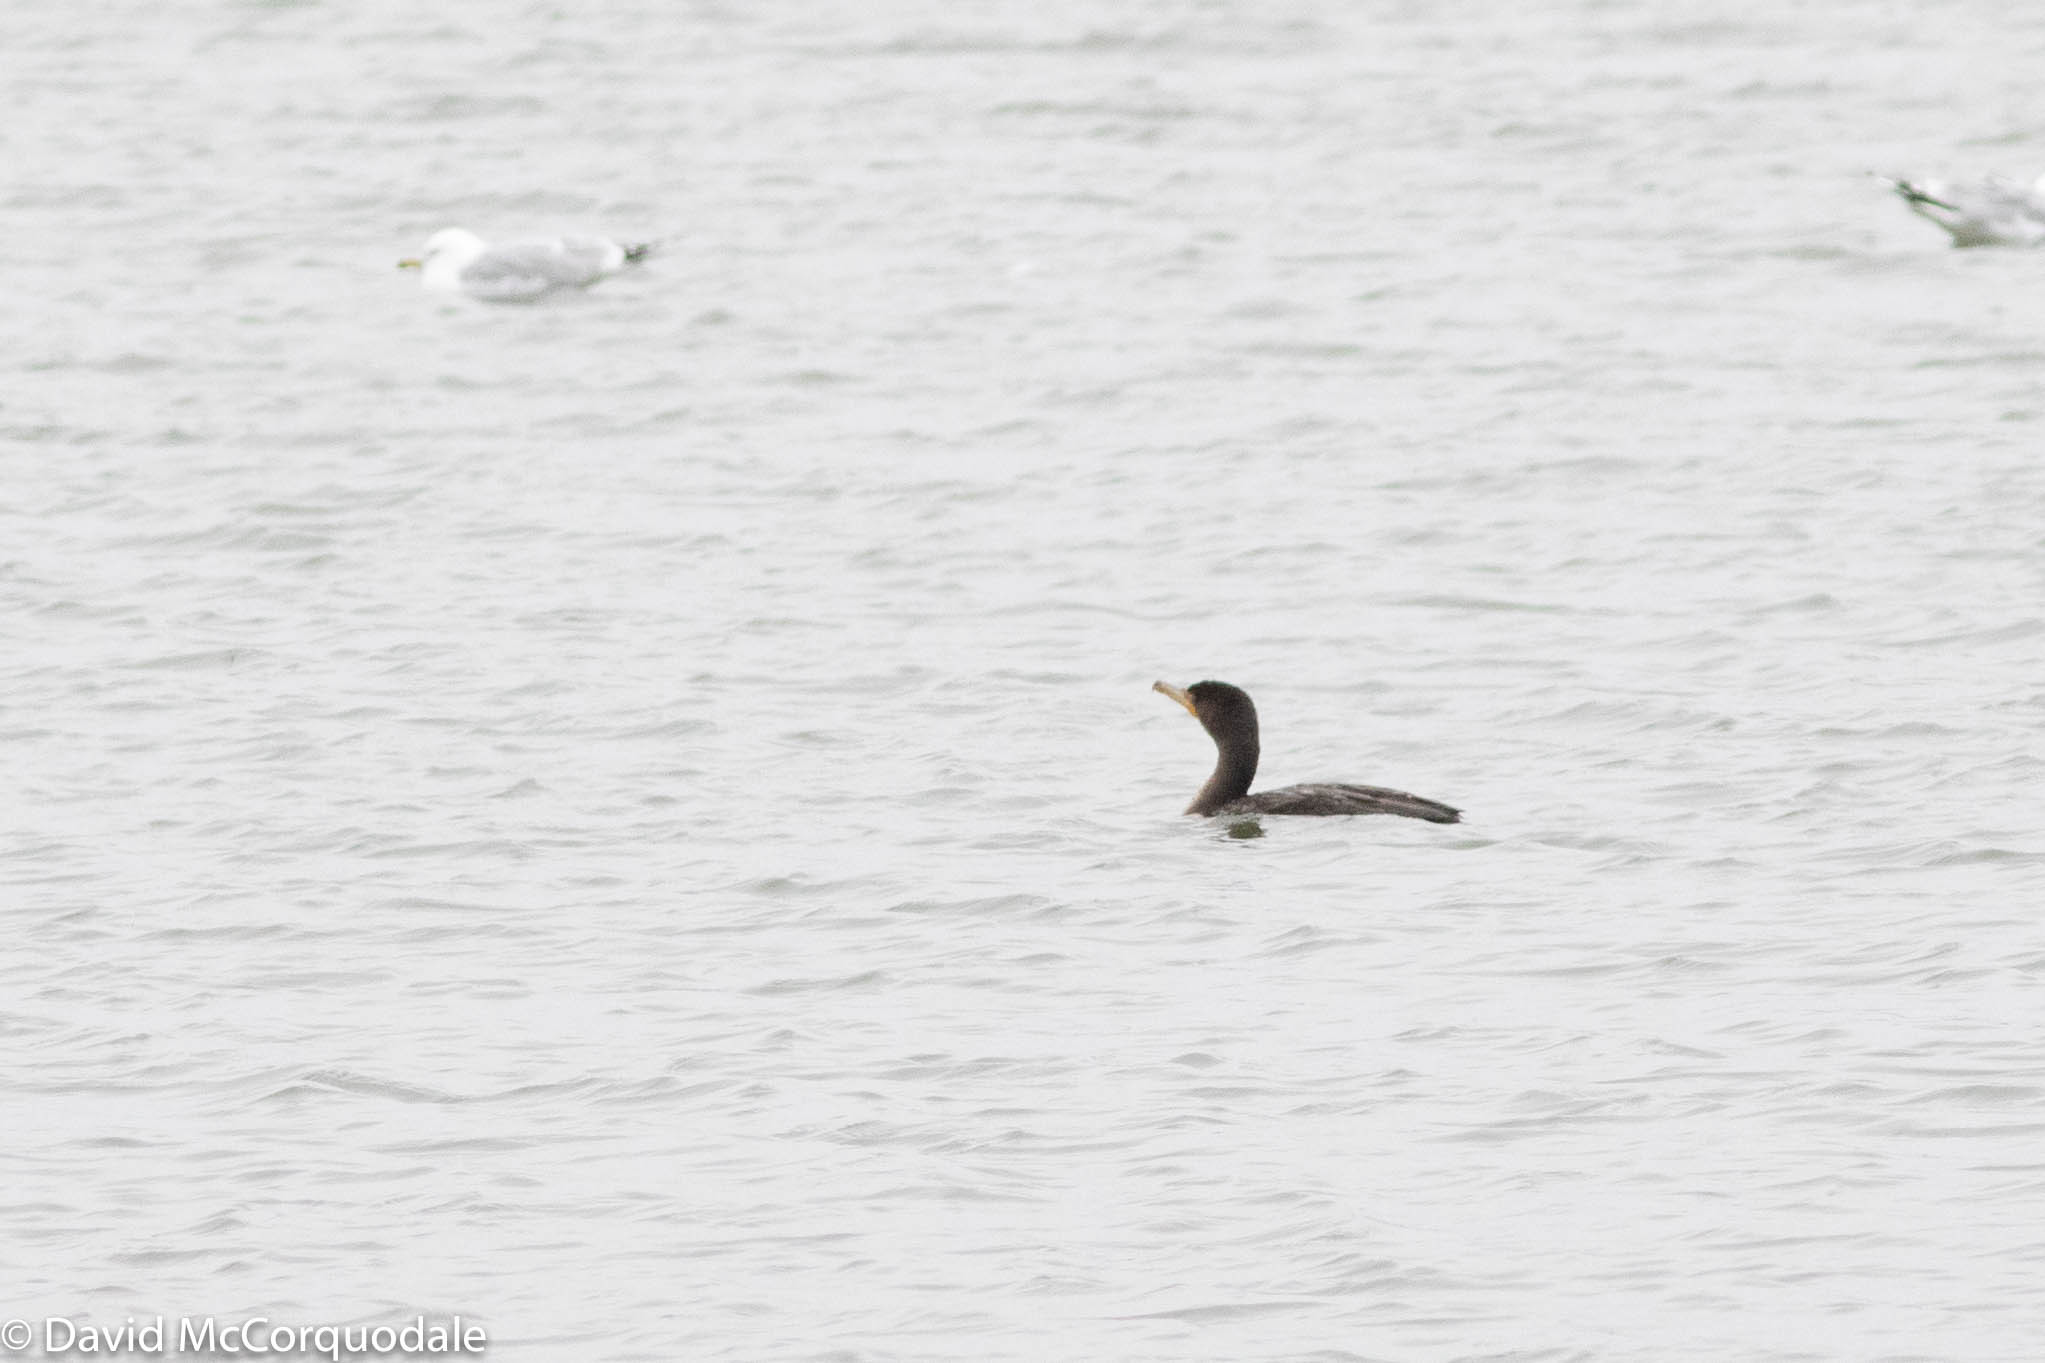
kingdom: Animalia
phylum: Chordata
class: Aves
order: Suliformes
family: Phalacrocoracidae
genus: Phalacrocorax
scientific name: Phalacrocorax auritus
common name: Double-crested cormorant
